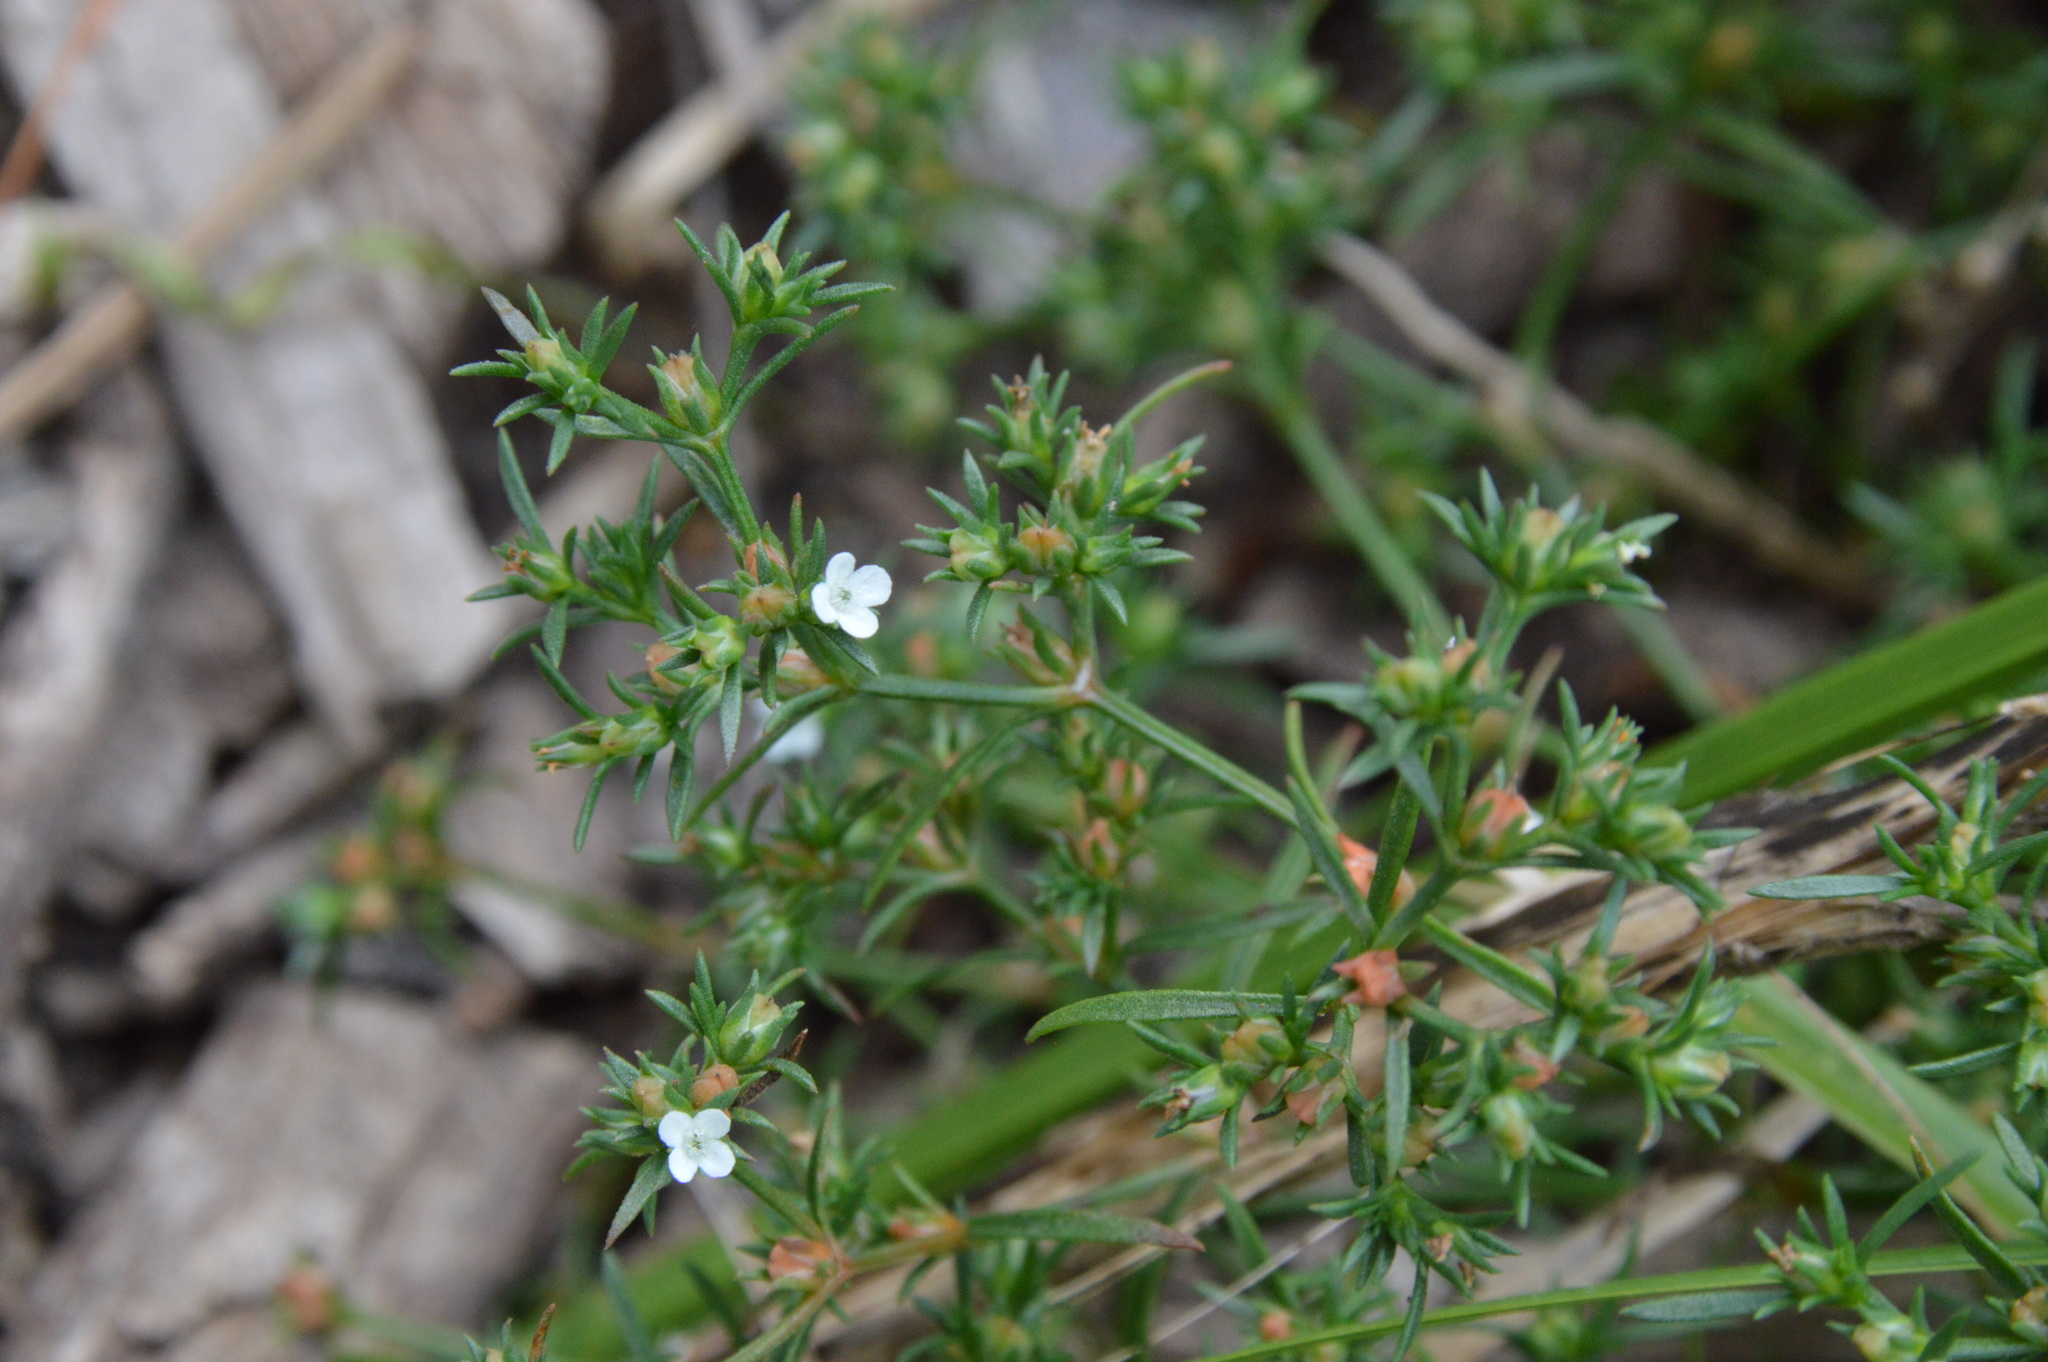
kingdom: Plantae
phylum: Tracheophyta
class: Magnoliopsida
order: Lamiales
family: Tetrachondraceae
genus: Polypremum
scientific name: Polypremum procumbens
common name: Juniper-leaf
